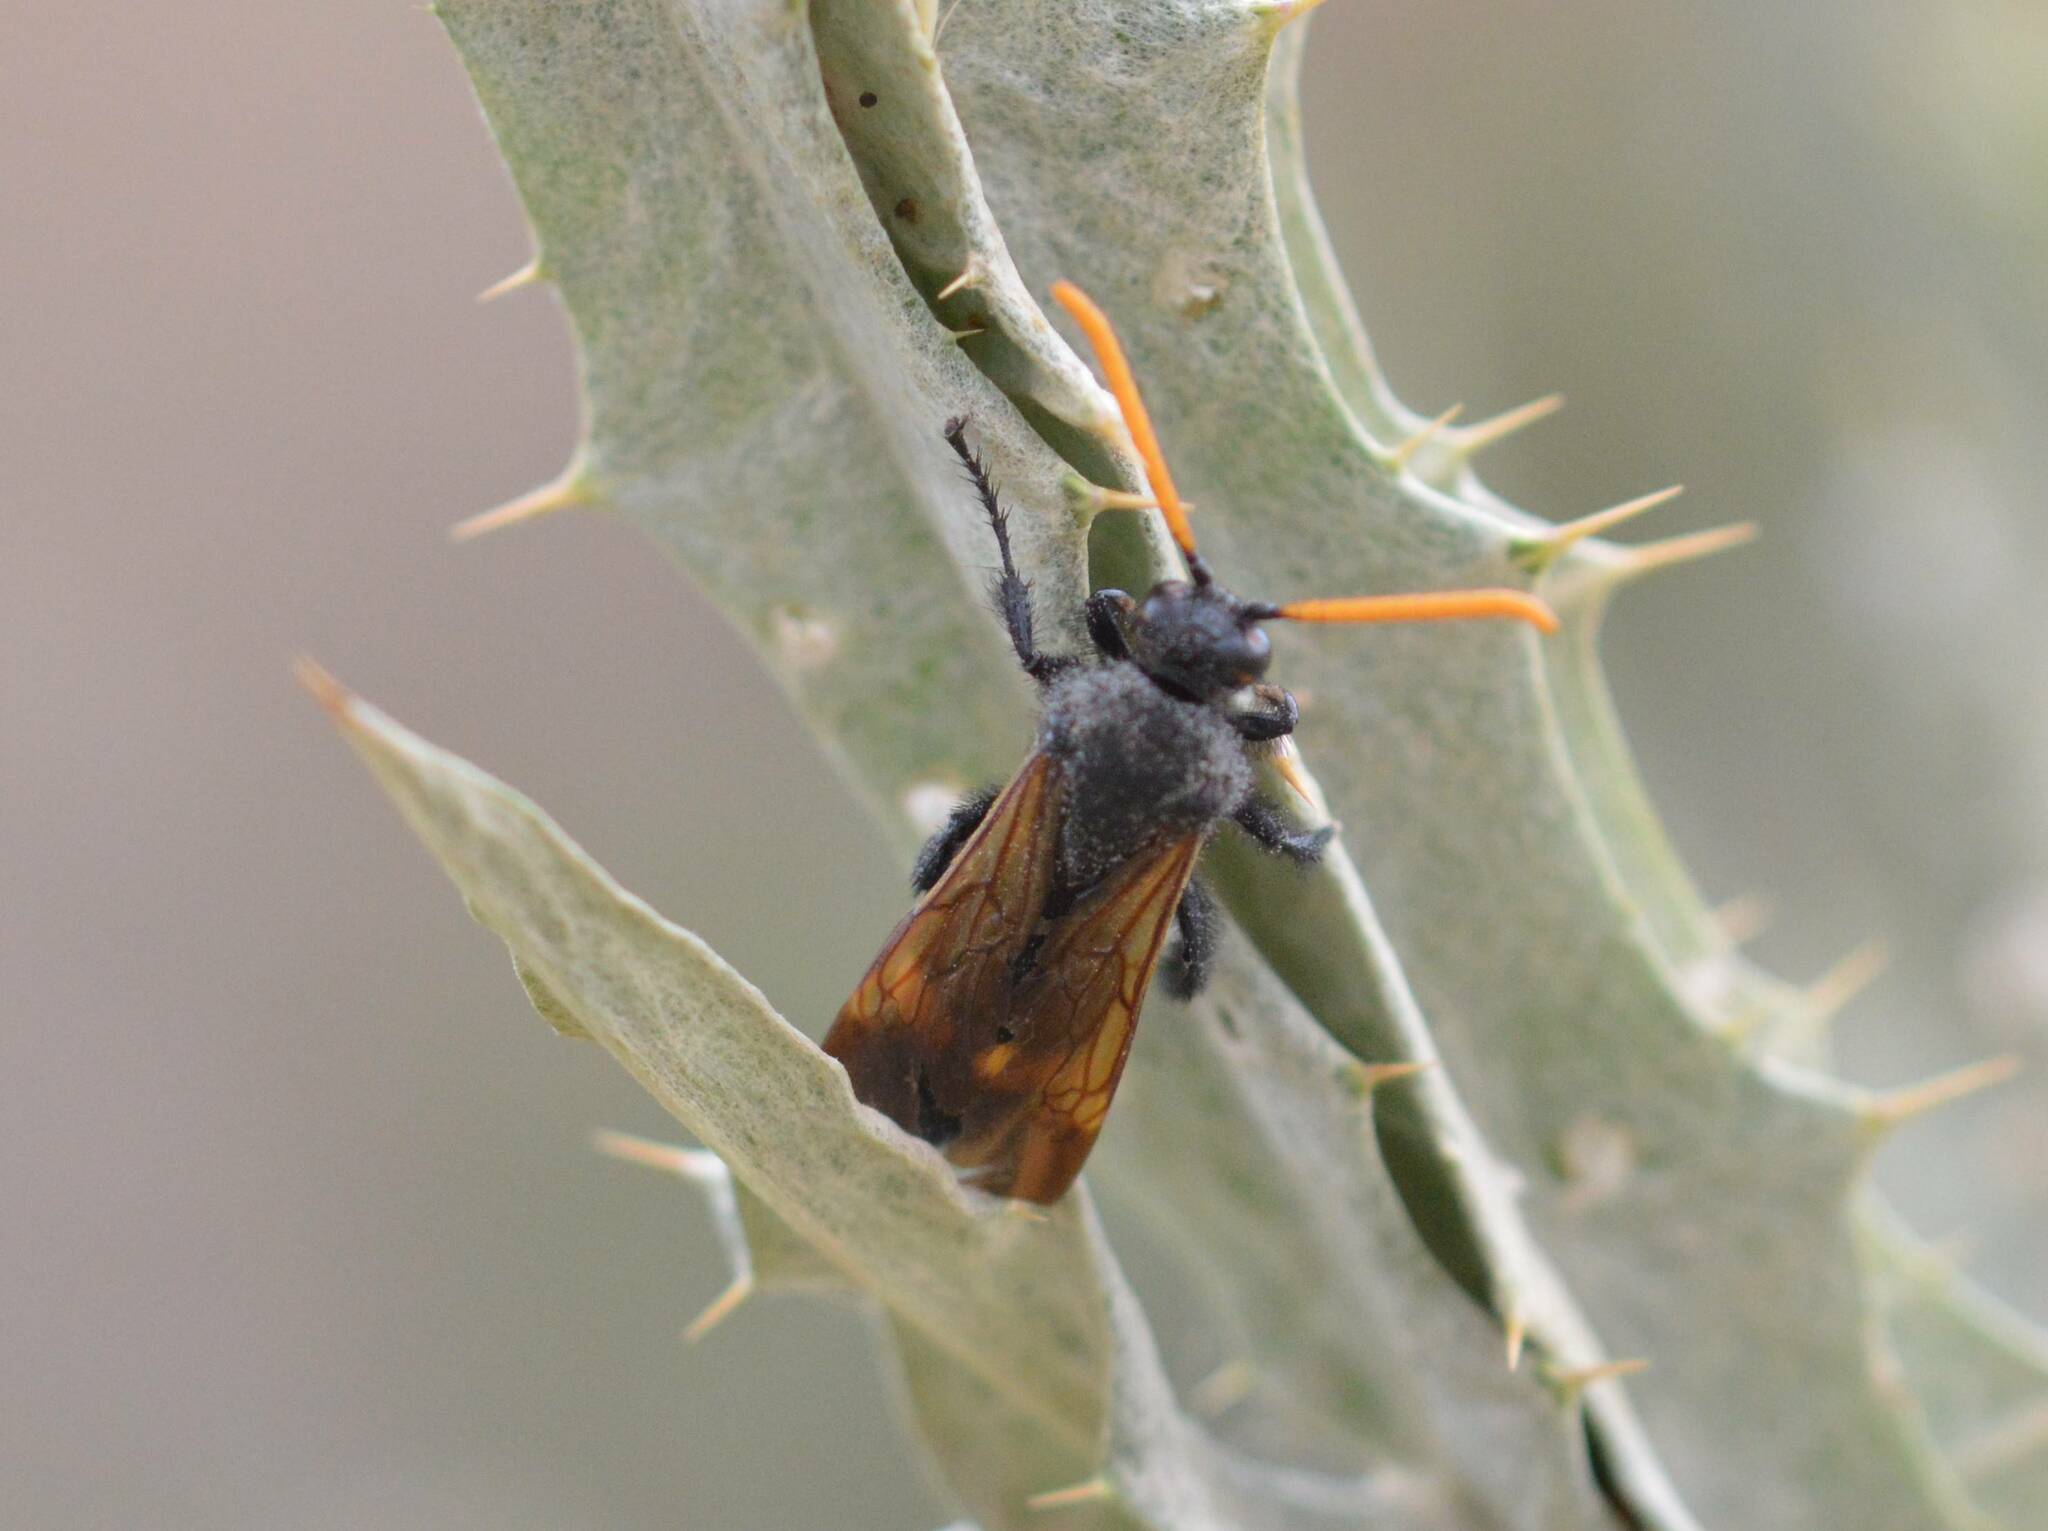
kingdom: Animalia
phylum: Arthropoda
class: Insecta
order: Hymenoptera
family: Scoliidae
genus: Megascolia
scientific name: Megascolia bidens
